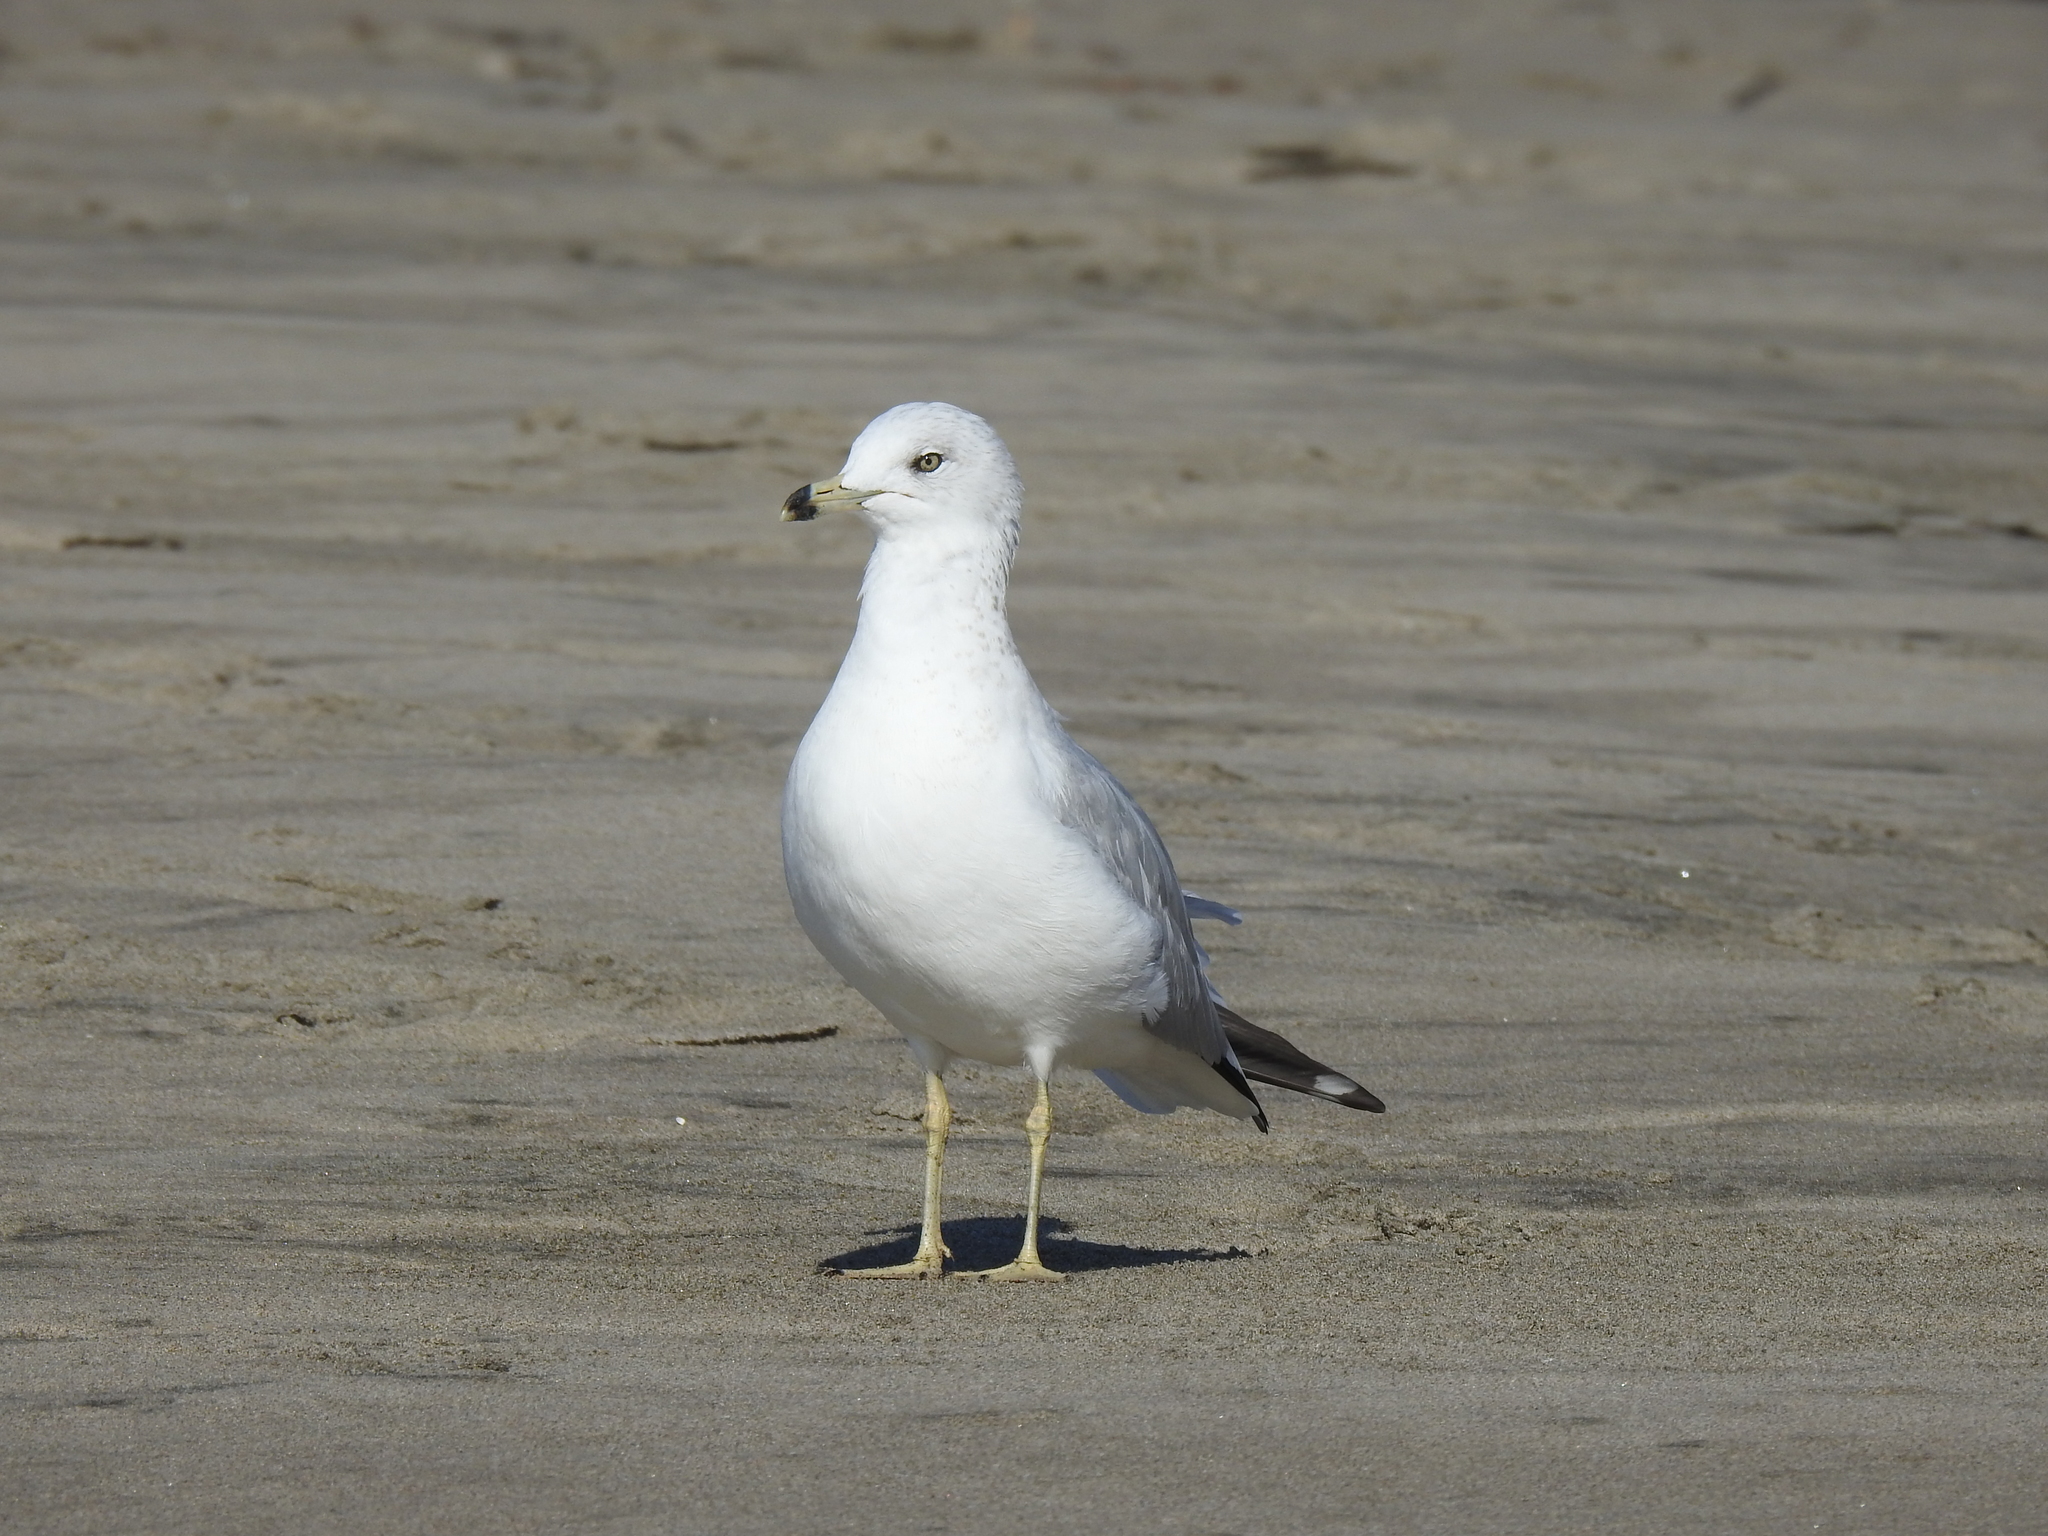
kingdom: Animalia
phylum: Chordata
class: Aves
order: Charadriiformes
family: Laridae
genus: Larus
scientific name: Larus delawarensis
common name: Ring-billed gull
